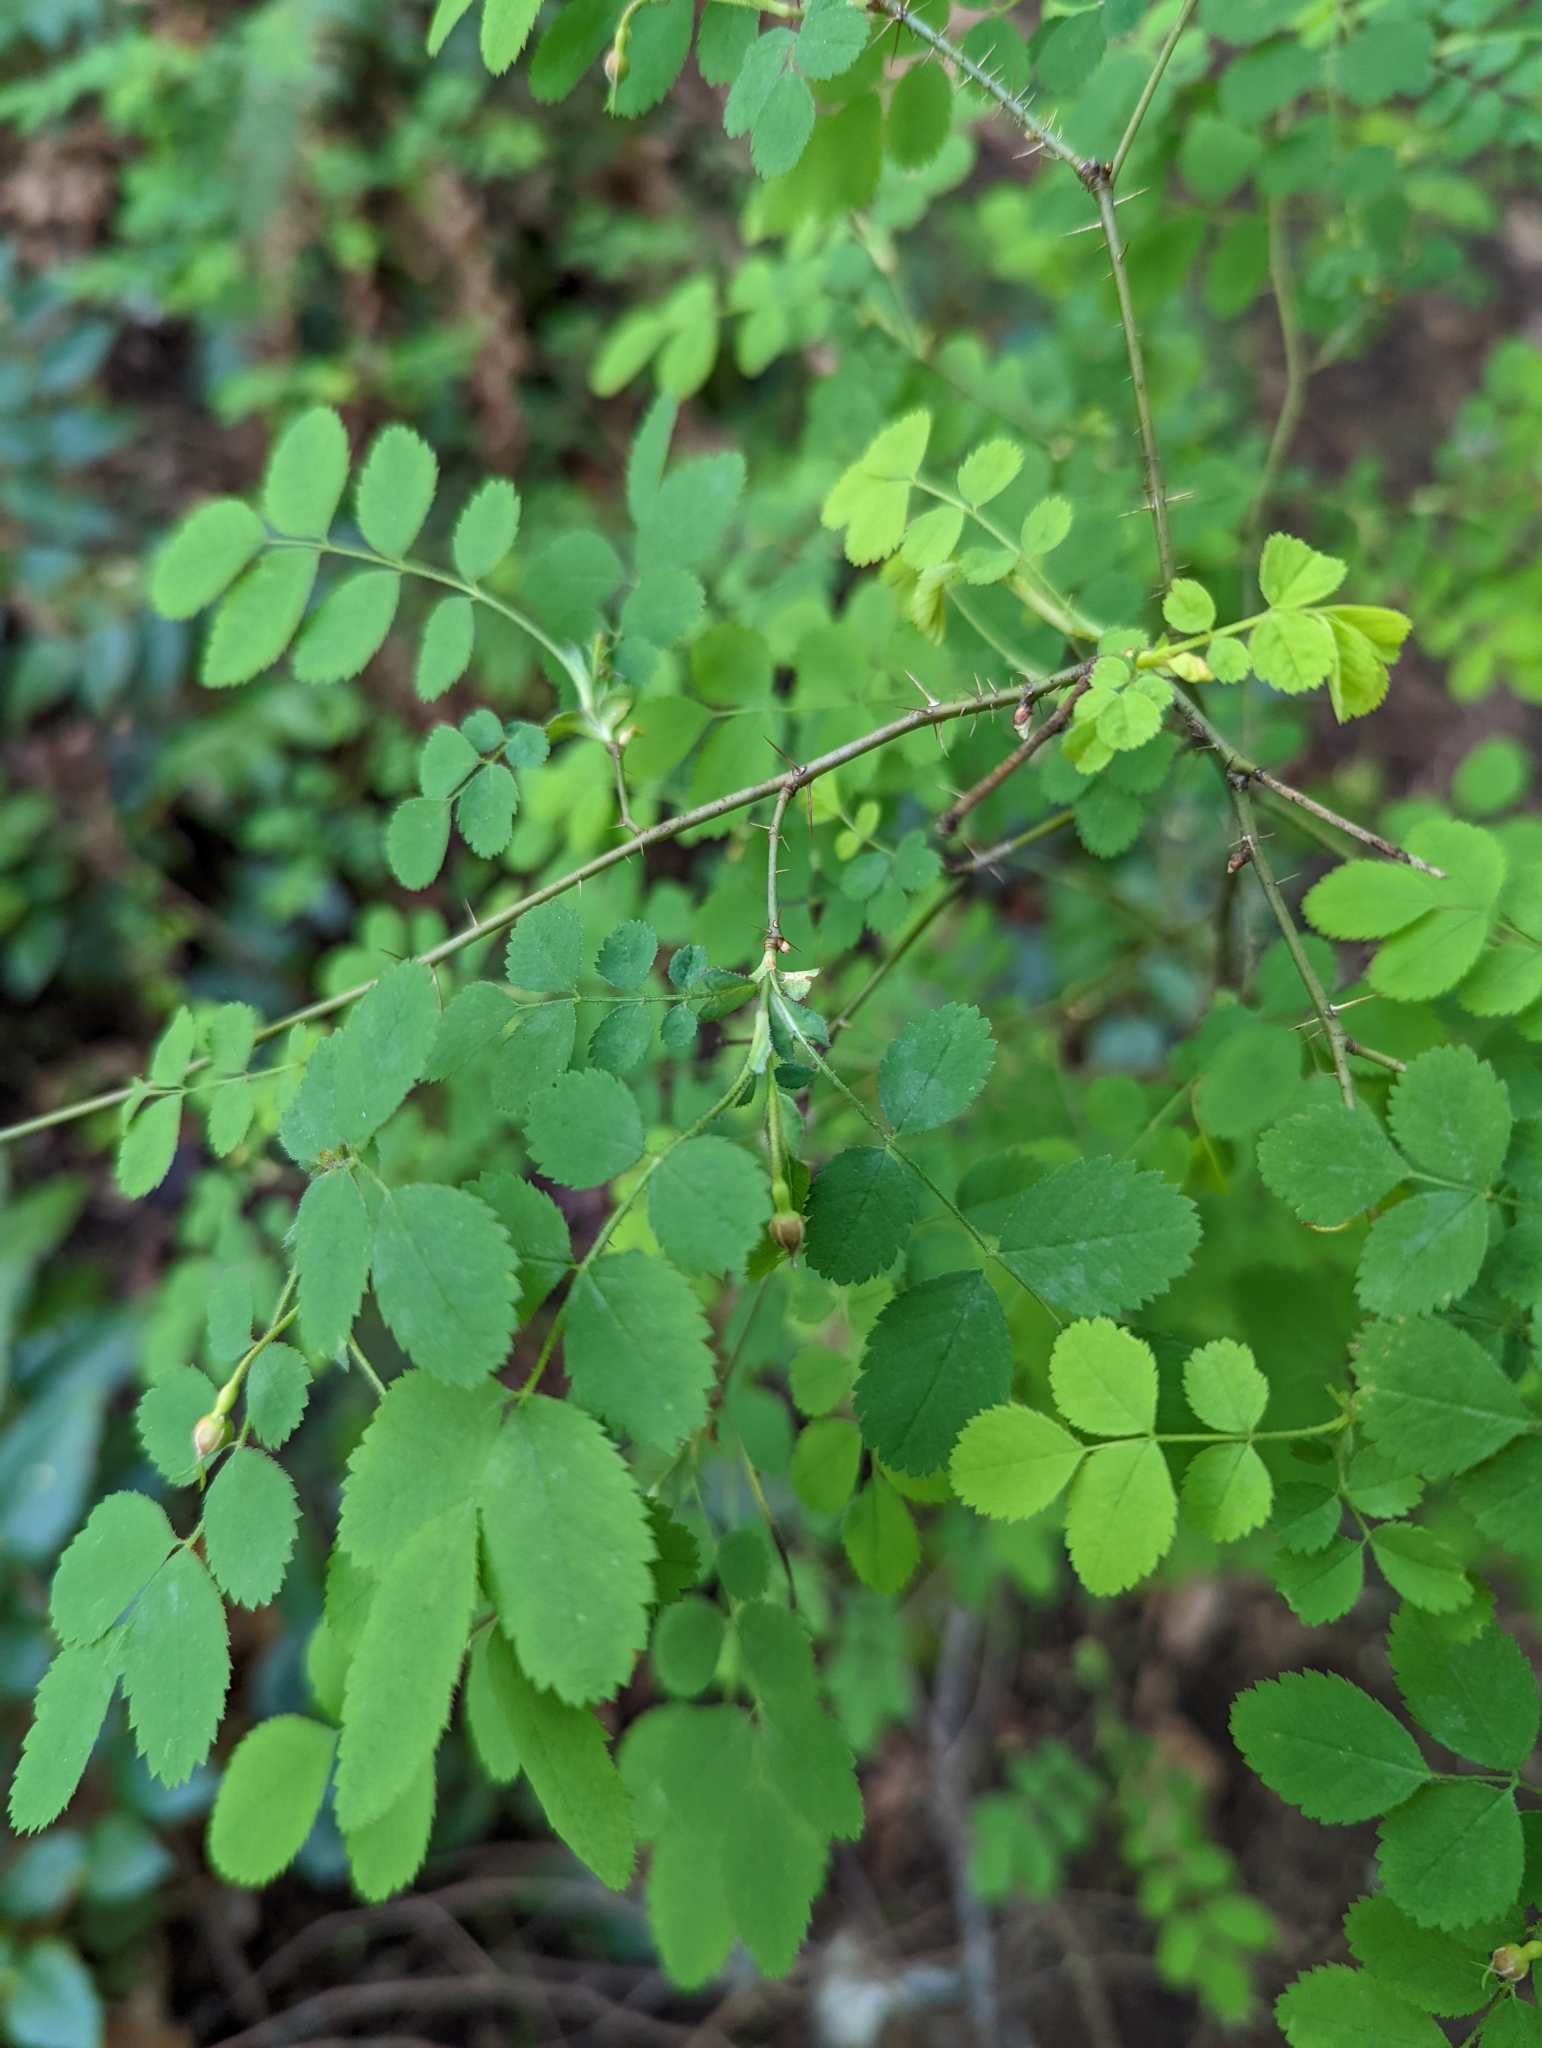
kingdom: Plantae
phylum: Tracheophyta
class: Magnoliopsida
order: Rosales
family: Rosaceae
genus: Rosa
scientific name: Rosa gymnocarpa
